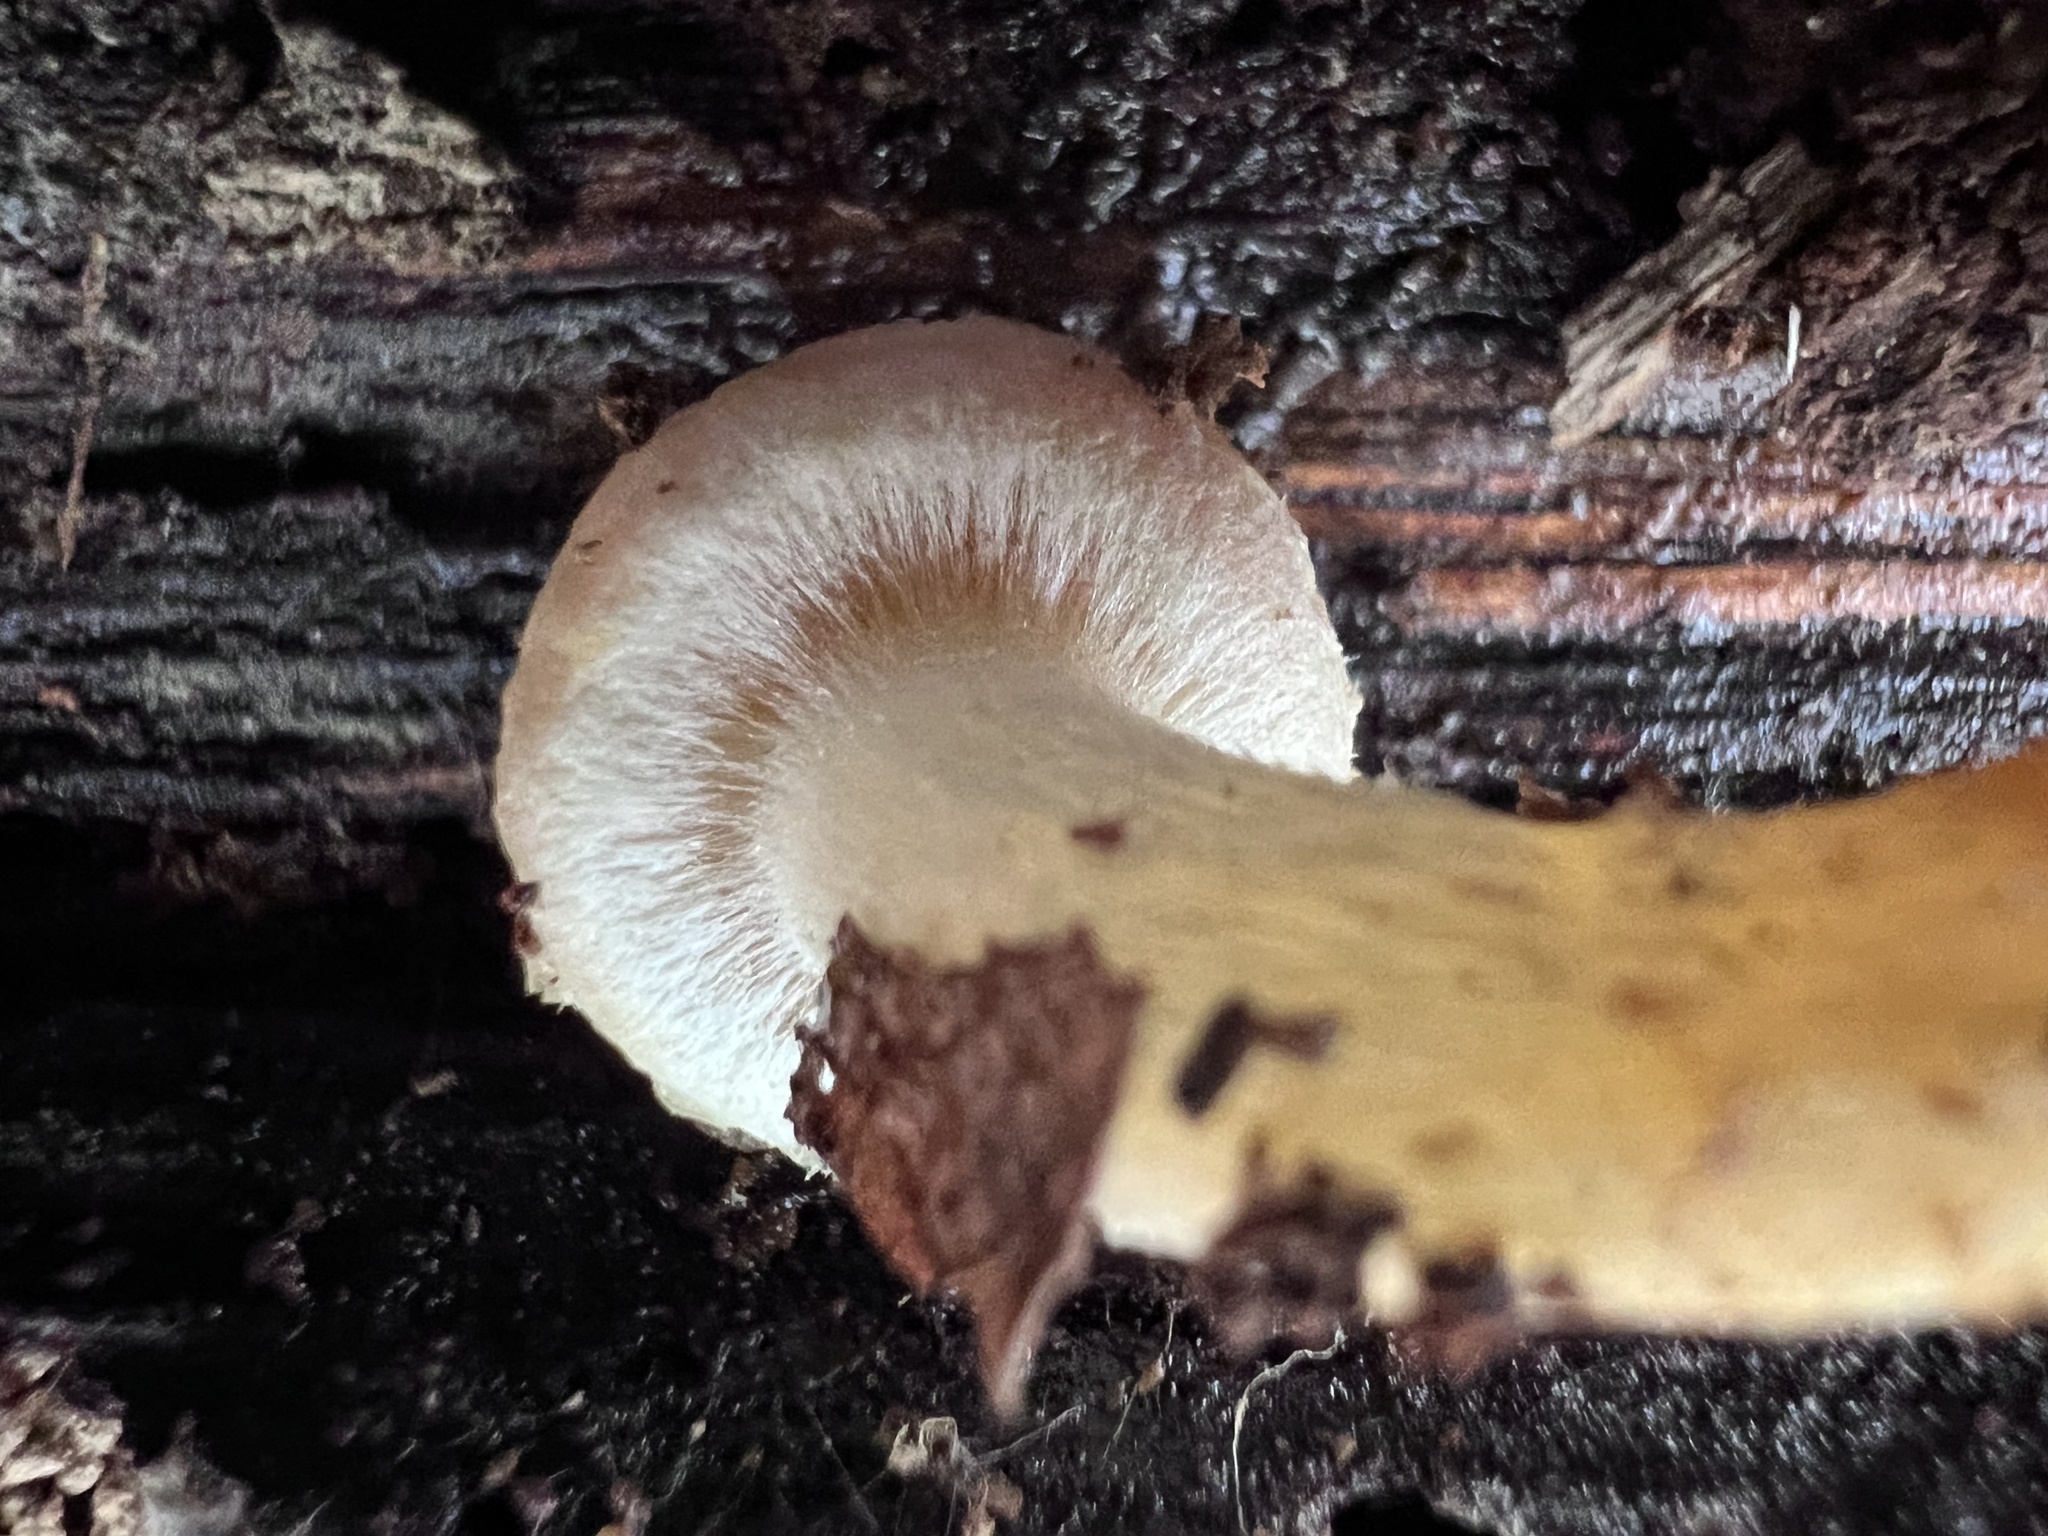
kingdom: Fungi
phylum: Basidiomycota
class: Agaricomycetes
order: Agaricales
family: Strophariaceae
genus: Hypholoma
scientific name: Hypholoma lateritium
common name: Brick caps
